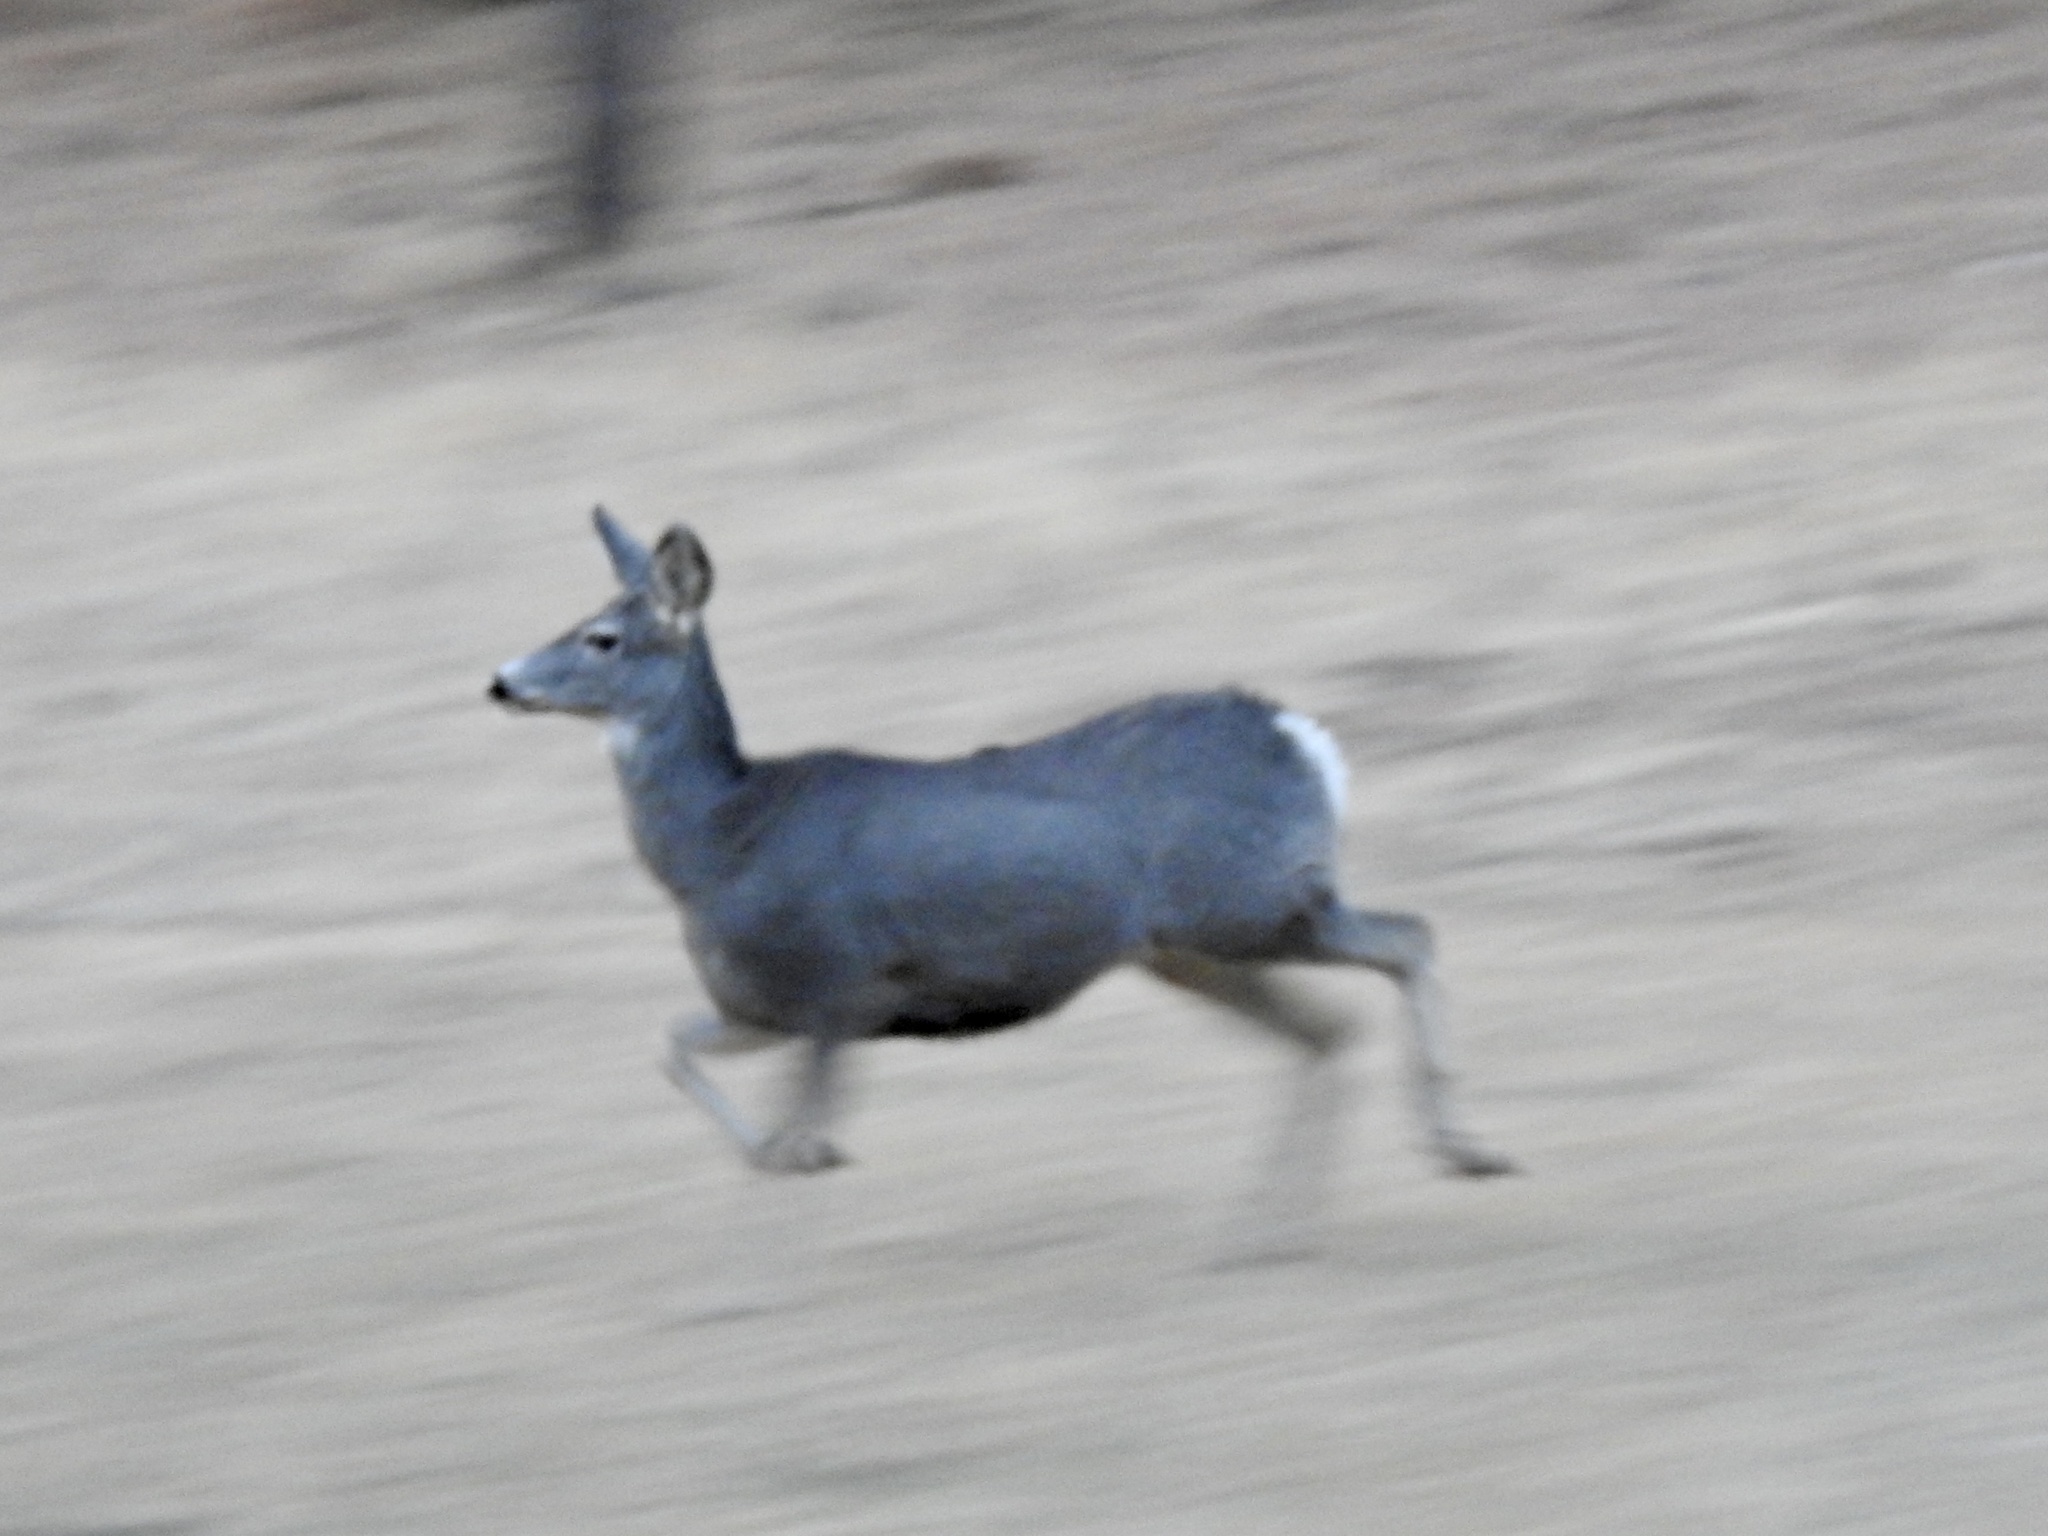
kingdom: Animalia
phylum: Chordata
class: Mammalia
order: Artiodactyla
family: Cervidae
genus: Odocoileus
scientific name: Odocoileus hemionus
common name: Mule deer
